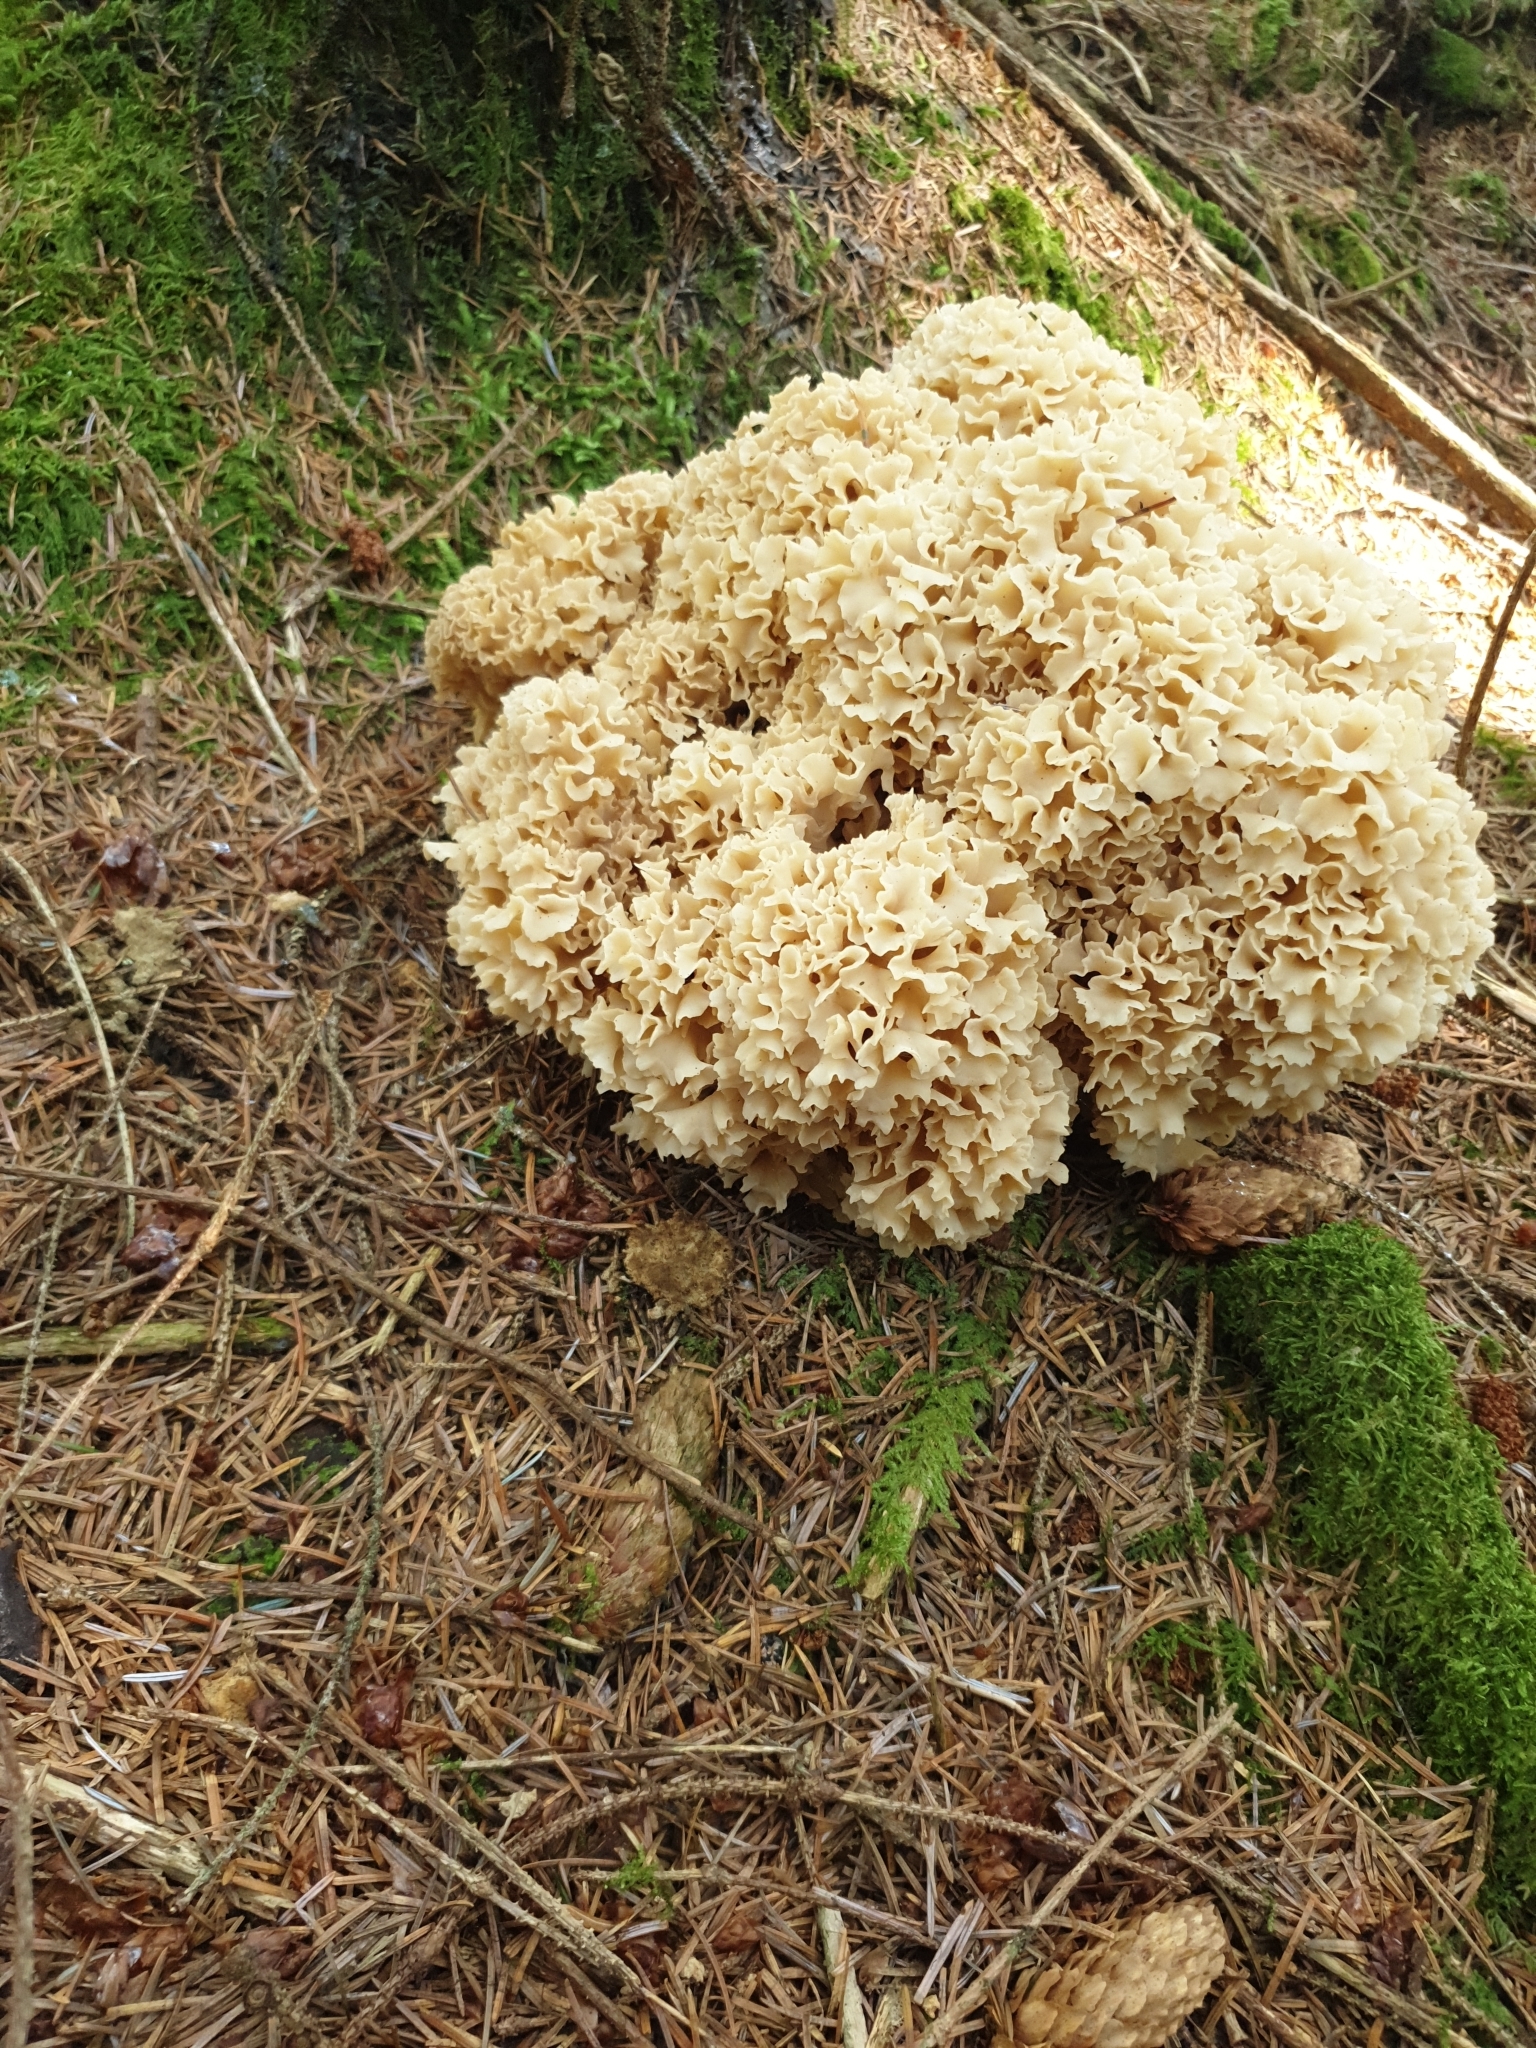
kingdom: Fungi
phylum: Basidiomycota
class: Agaricomycetes
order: Polyporales
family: Sparassidaceae
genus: Sparassis
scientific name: Sparassis crispa
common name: Brain fungus
